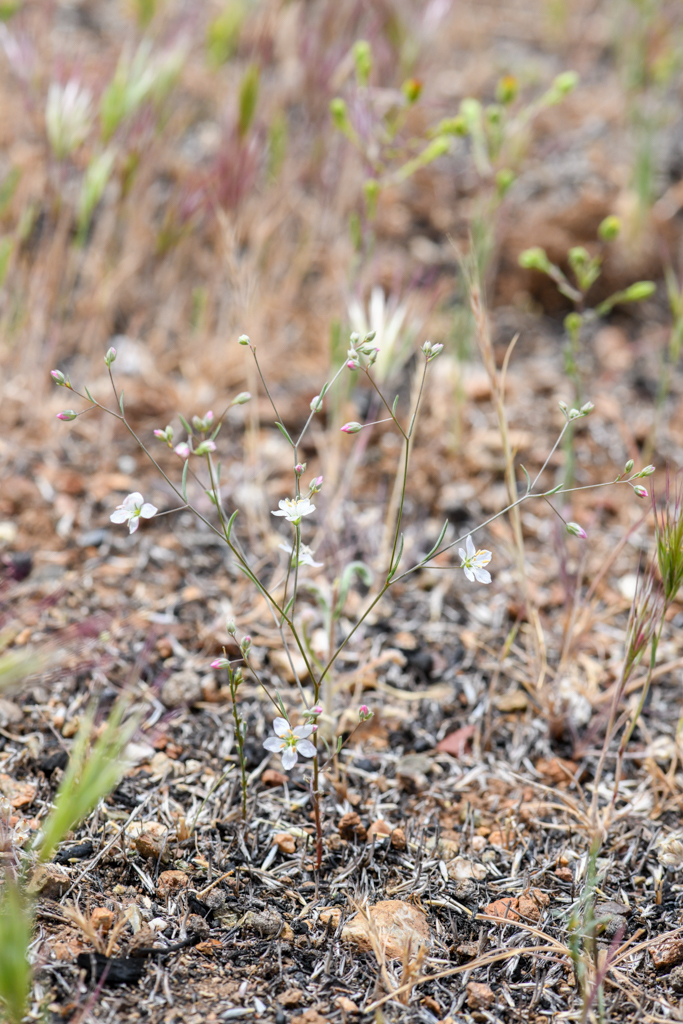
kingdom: Plantae
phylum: Tracheophyta
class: Magnoliopsida
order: Malpighiales
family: Linaceae
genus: Hesperolinon
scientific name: Hesperolinon disjunctum
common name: Coast range dwarf-flax
